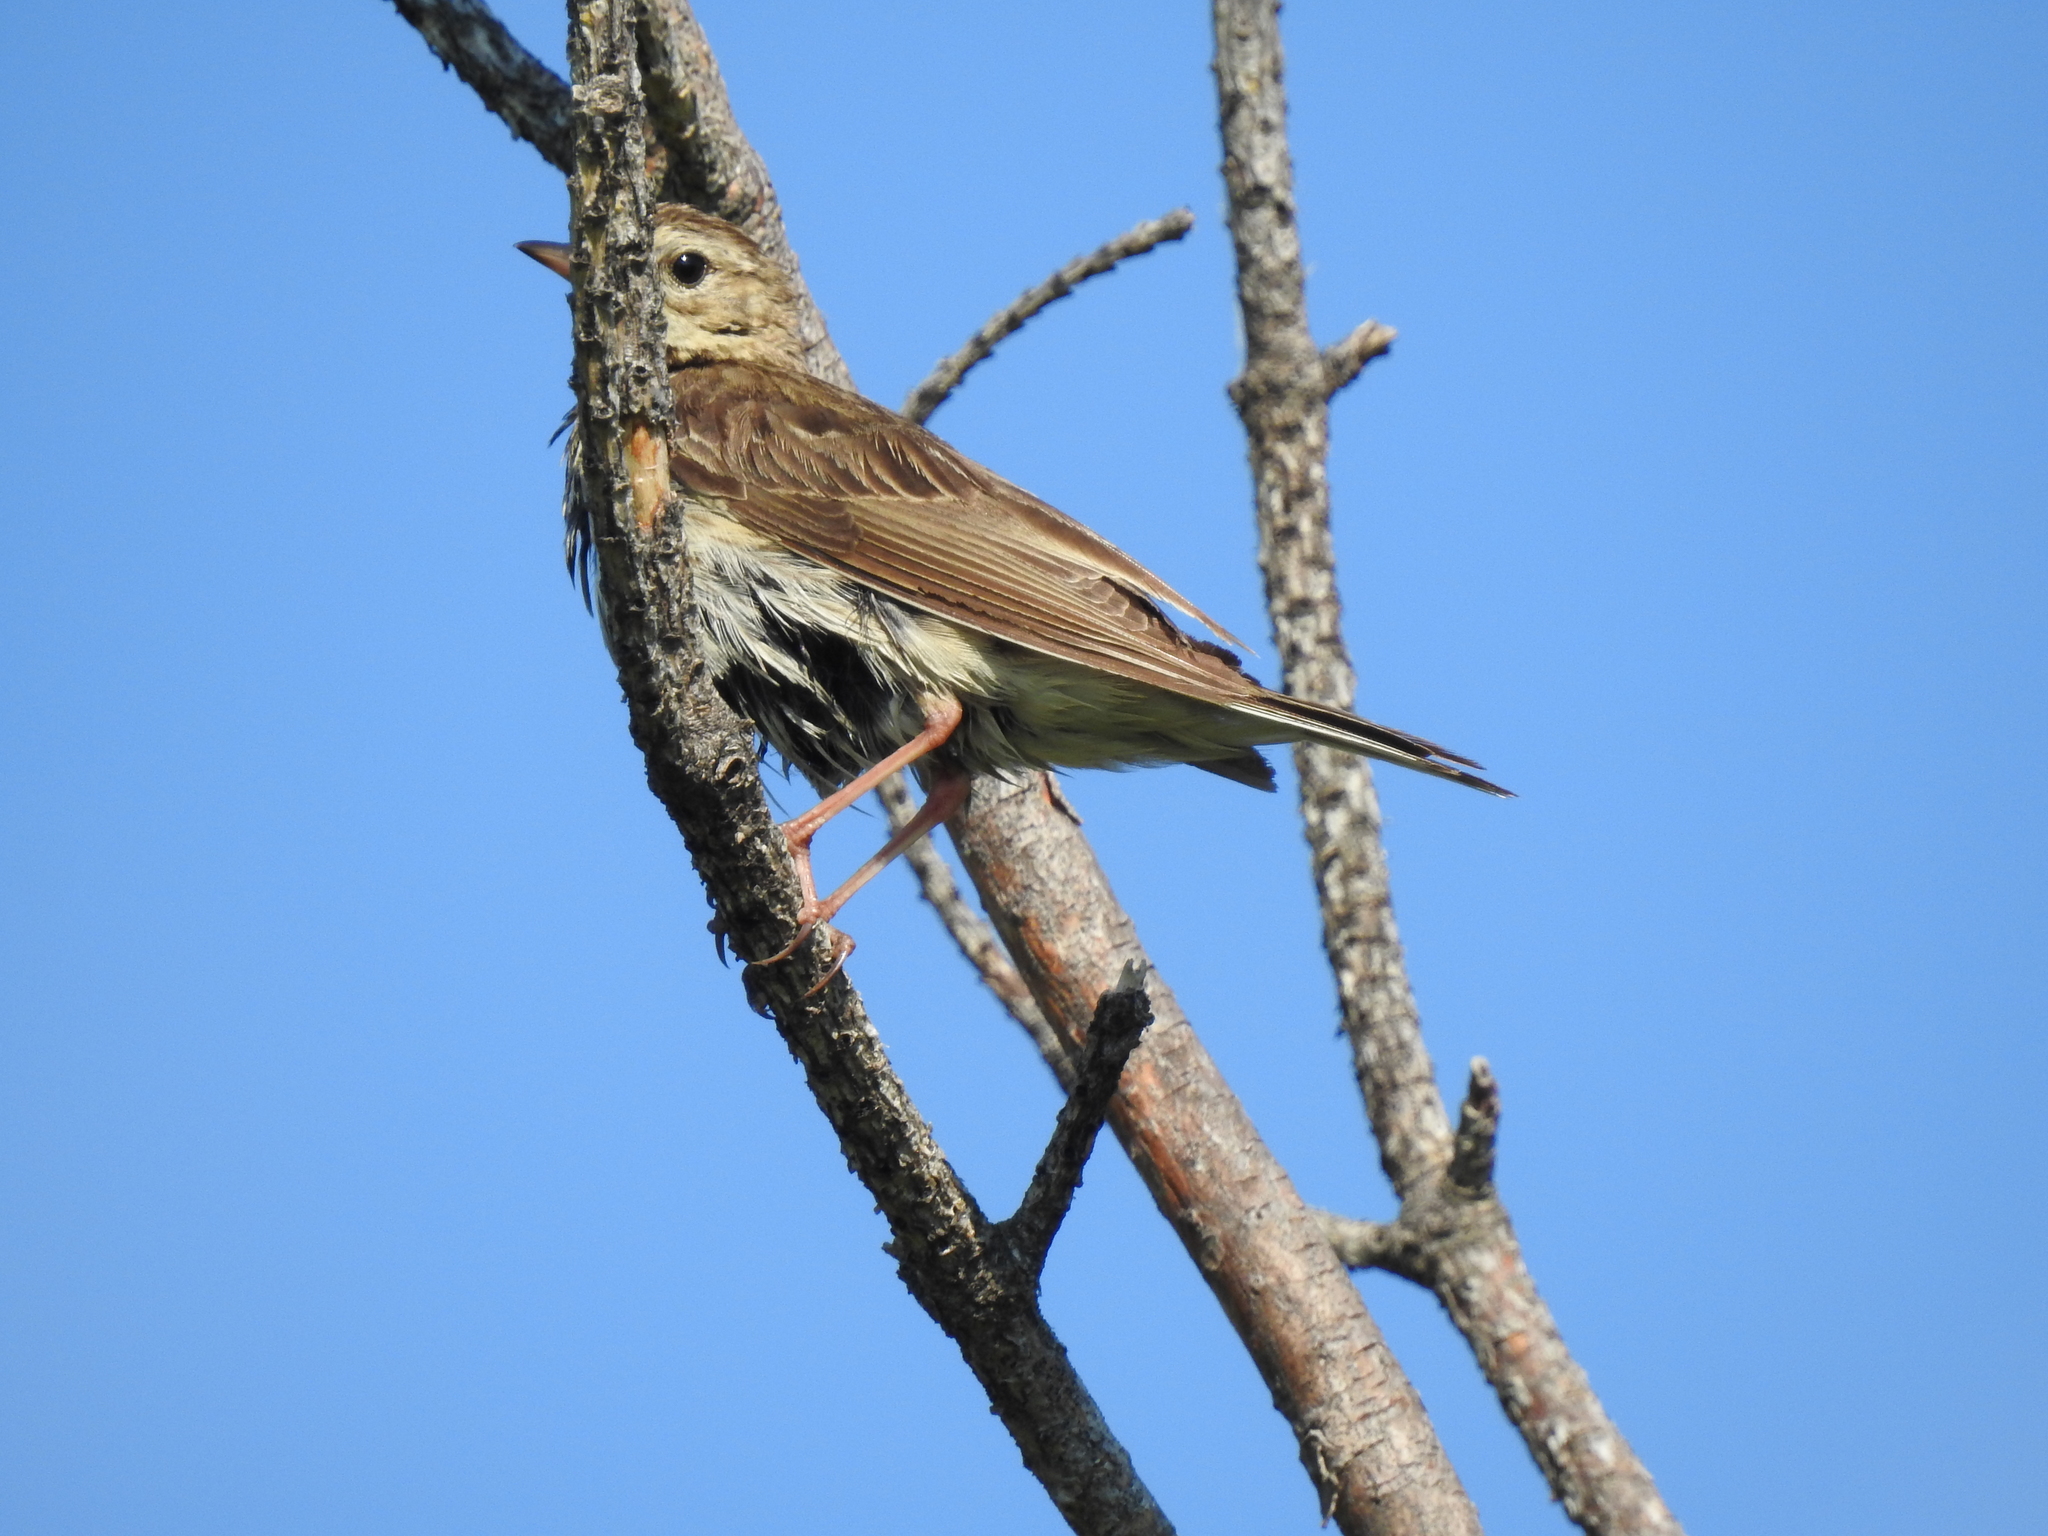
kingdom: Animalia
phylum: Chordata
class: Aves
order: Passeriformes
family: Motacillidae
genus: Anthus
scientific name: Anthus trivialis
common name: Tree pipit
